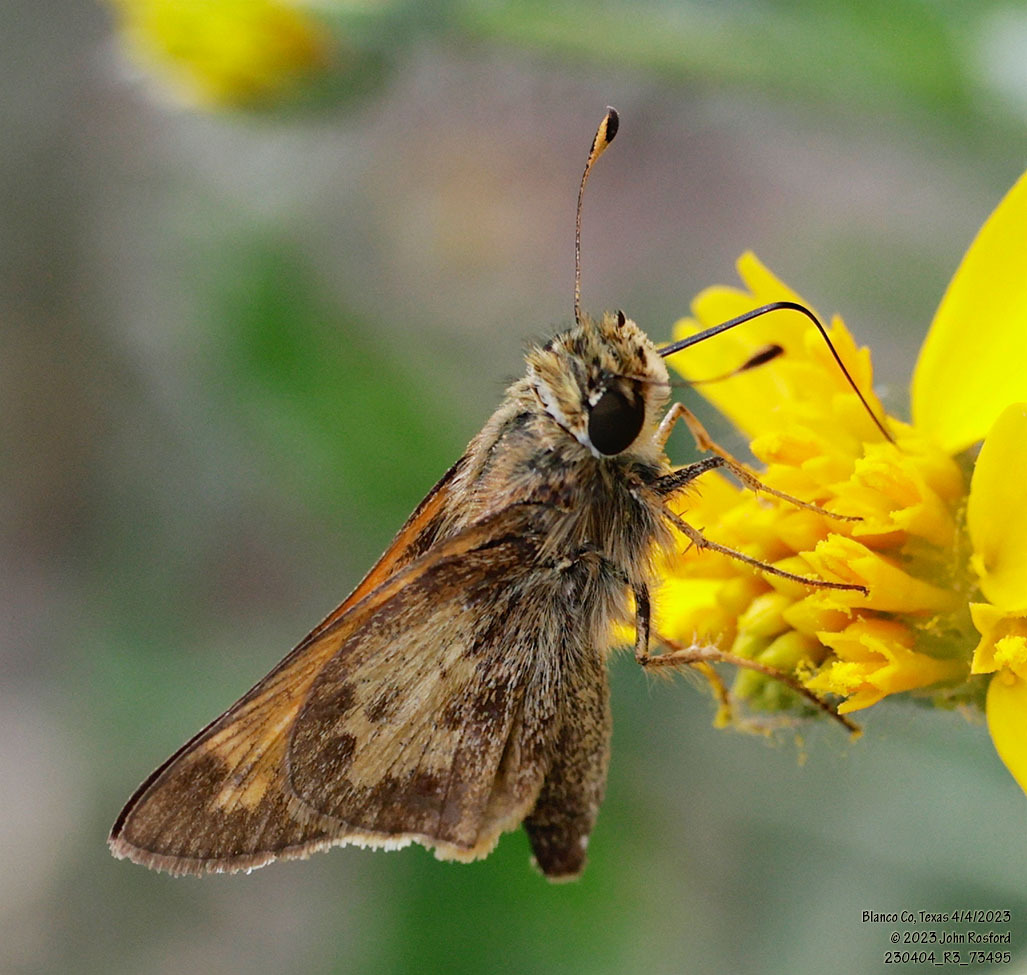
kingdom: Animalia
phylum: Arthropoda
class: Insecta
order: Lepidoptera
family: Hesperiidae
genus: Atalopedes
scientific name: Atalopedes
